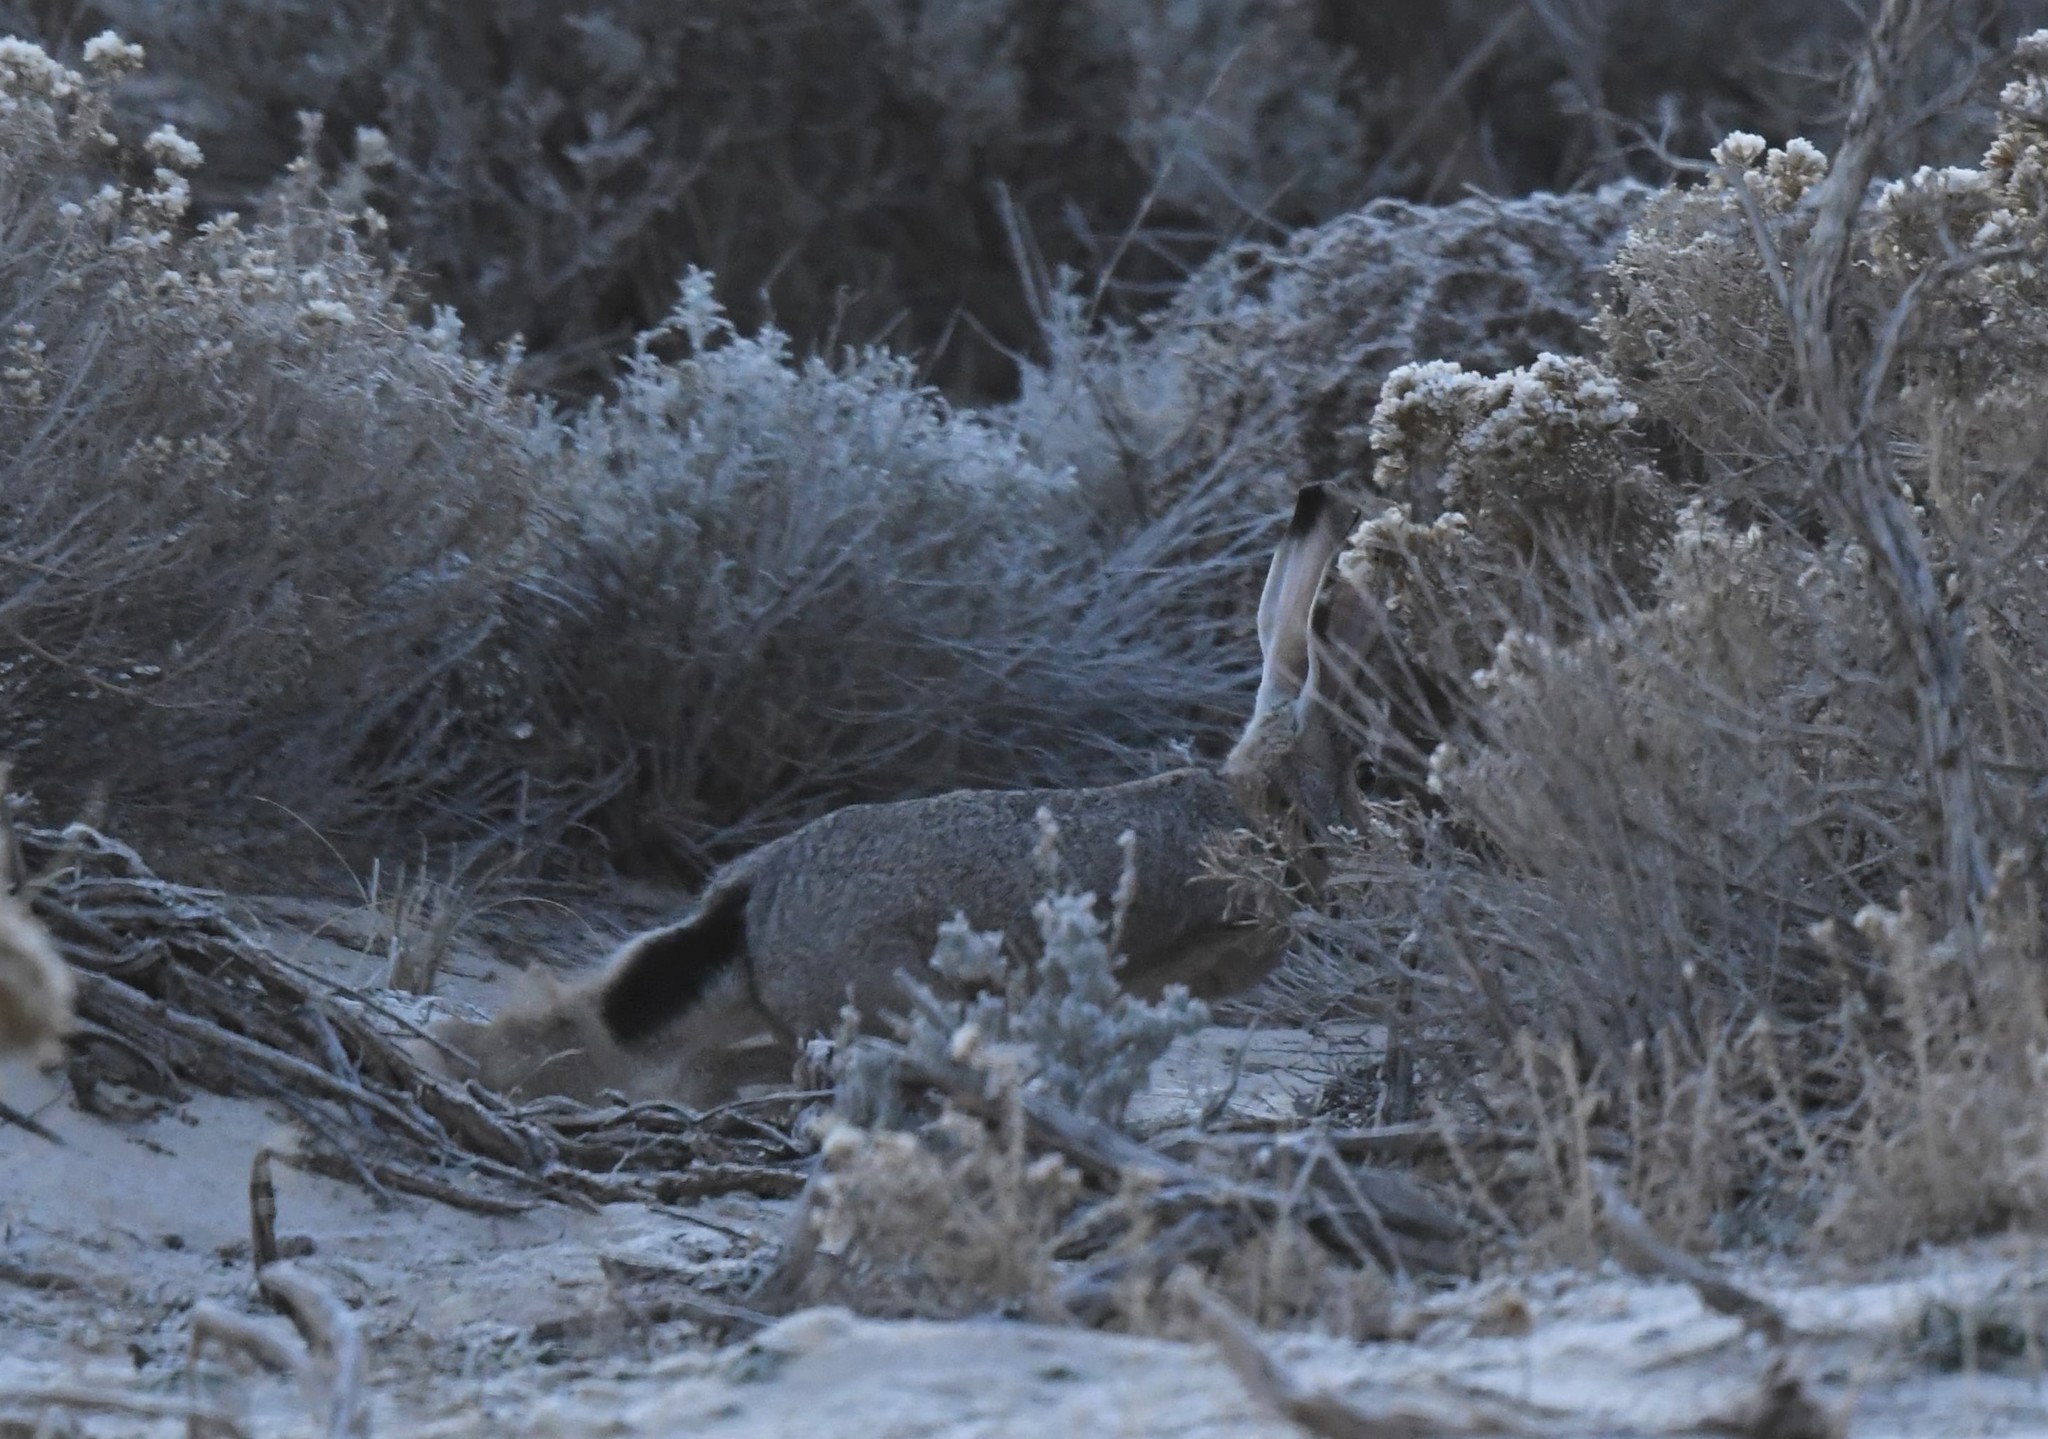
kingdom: Animalia
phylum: Chordata
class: Mammalia
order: Lagomorpha
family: Leporidae
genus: Lepus
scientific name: Lepus californicus
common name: Black-tailed jackrabbit
